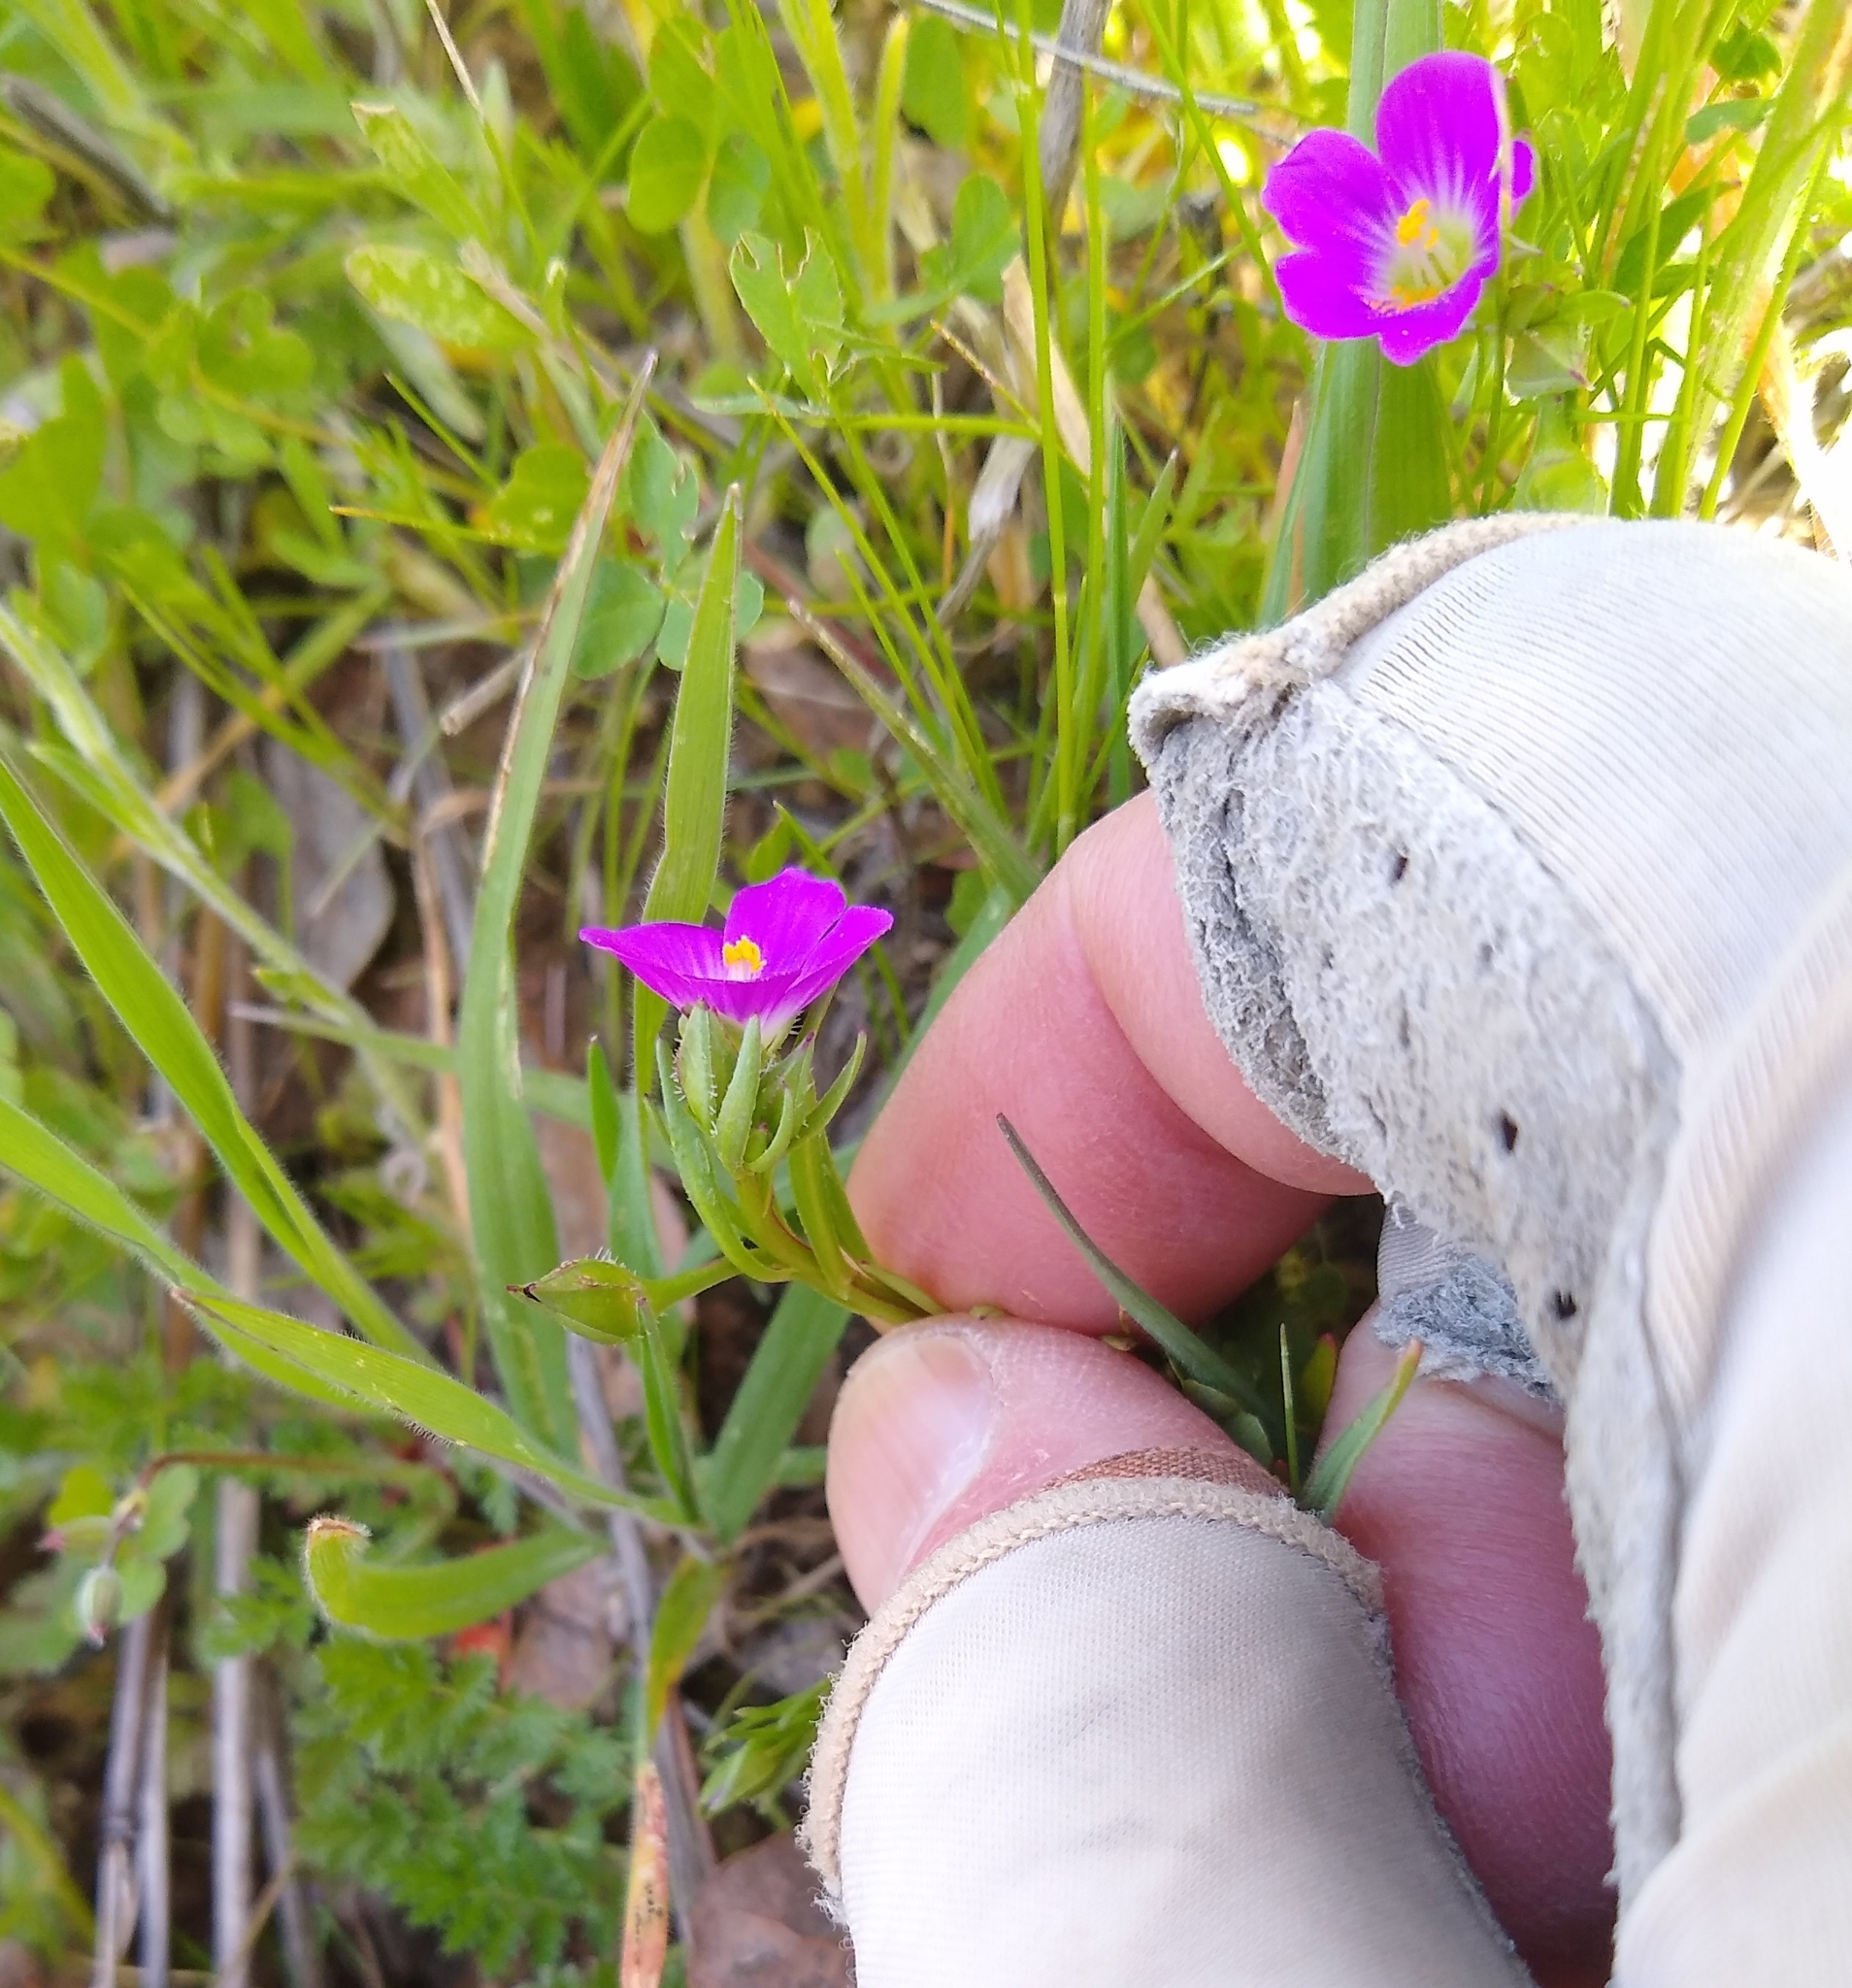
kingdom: Plantae
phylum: Tracheophyta
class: Magnoliopsida
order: Caryophyllales
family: Montiaceae
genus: Calandrinia
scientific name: Calandrinia menziesii
